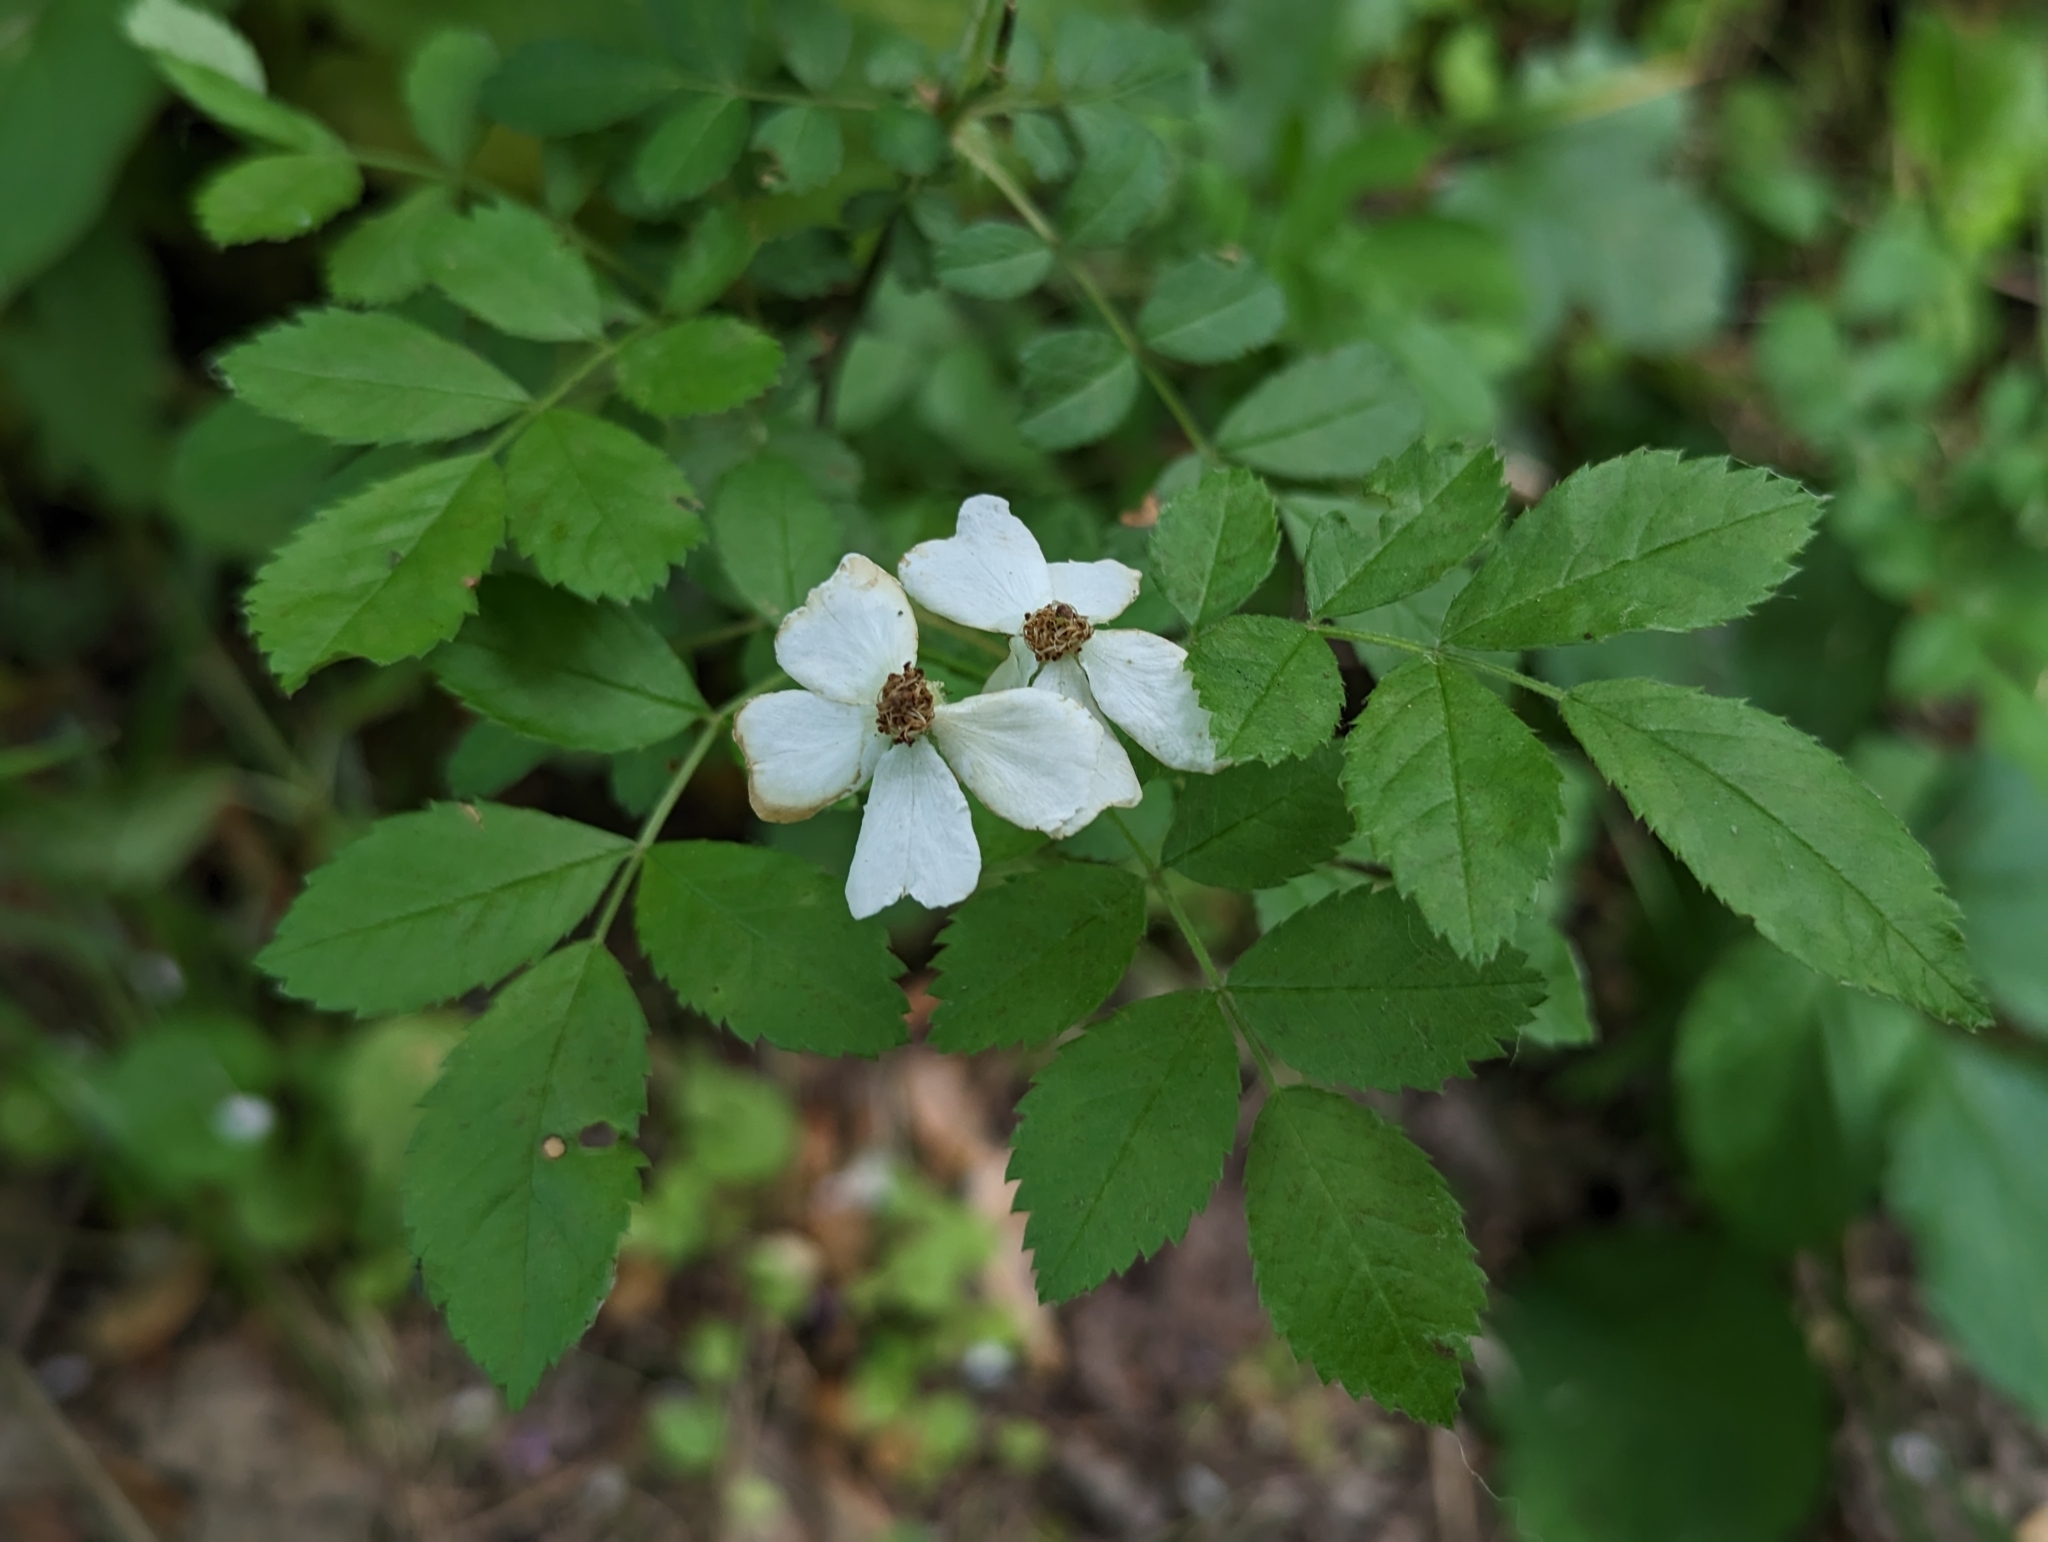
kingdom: Plantae
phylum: Tracheophyta
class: Magnoliopsida
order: Rosales
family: Rosaceae
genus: Rosa
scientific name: Rosa multiflora
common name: Multiflora rose
